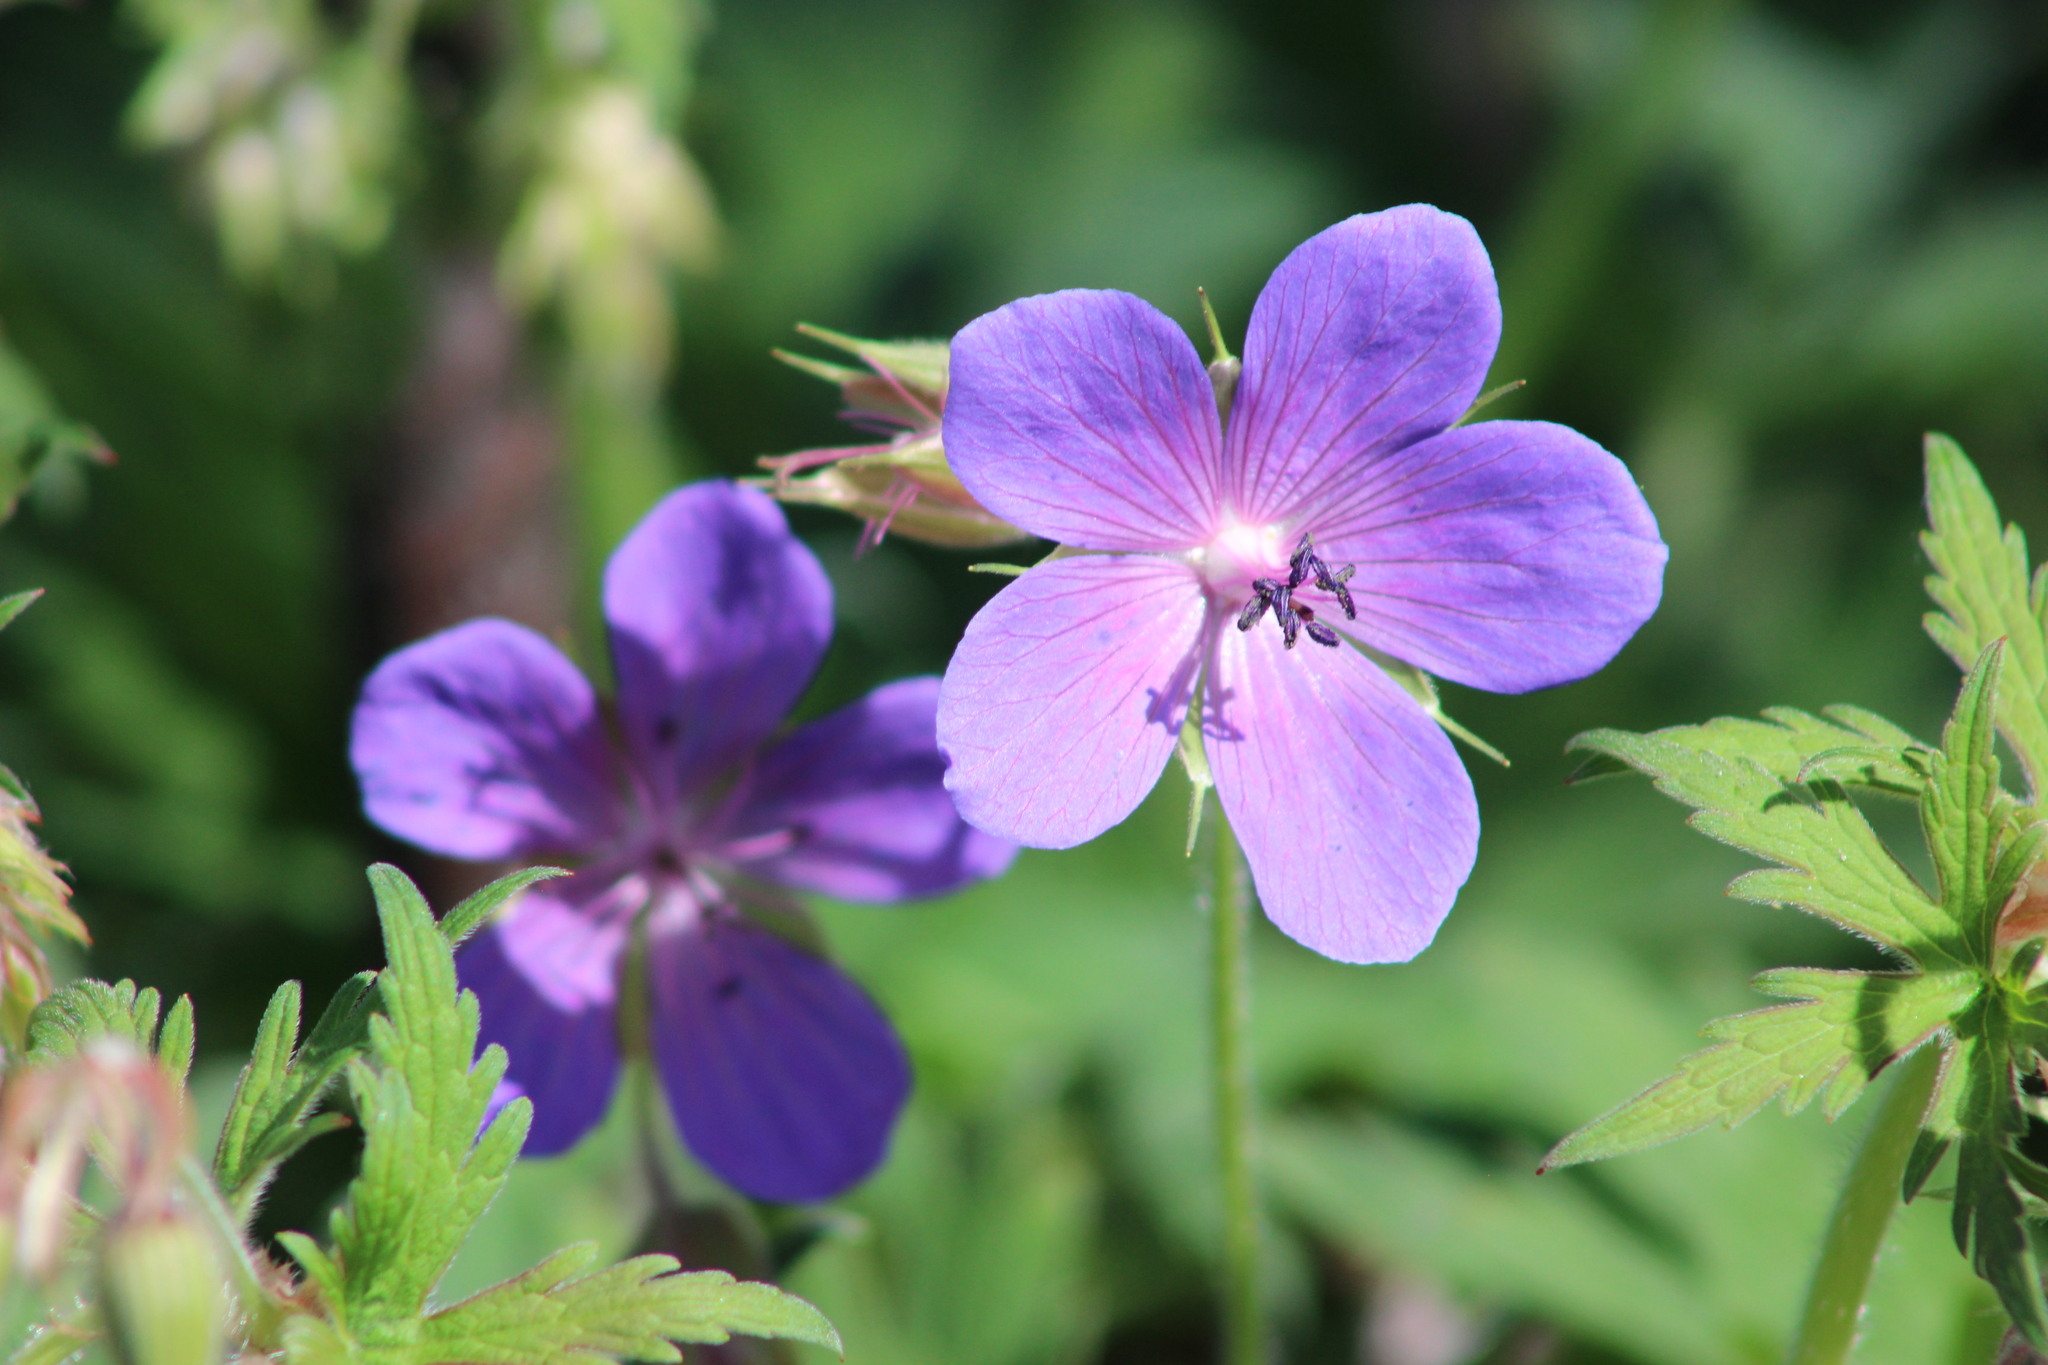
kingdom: Plantae
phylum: Tracheophyta
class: Magnoliopsida
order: Geraniales
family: Geraniaceae
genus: Geranium
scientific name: Geranium pratense
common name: Meadow crane's-bill
